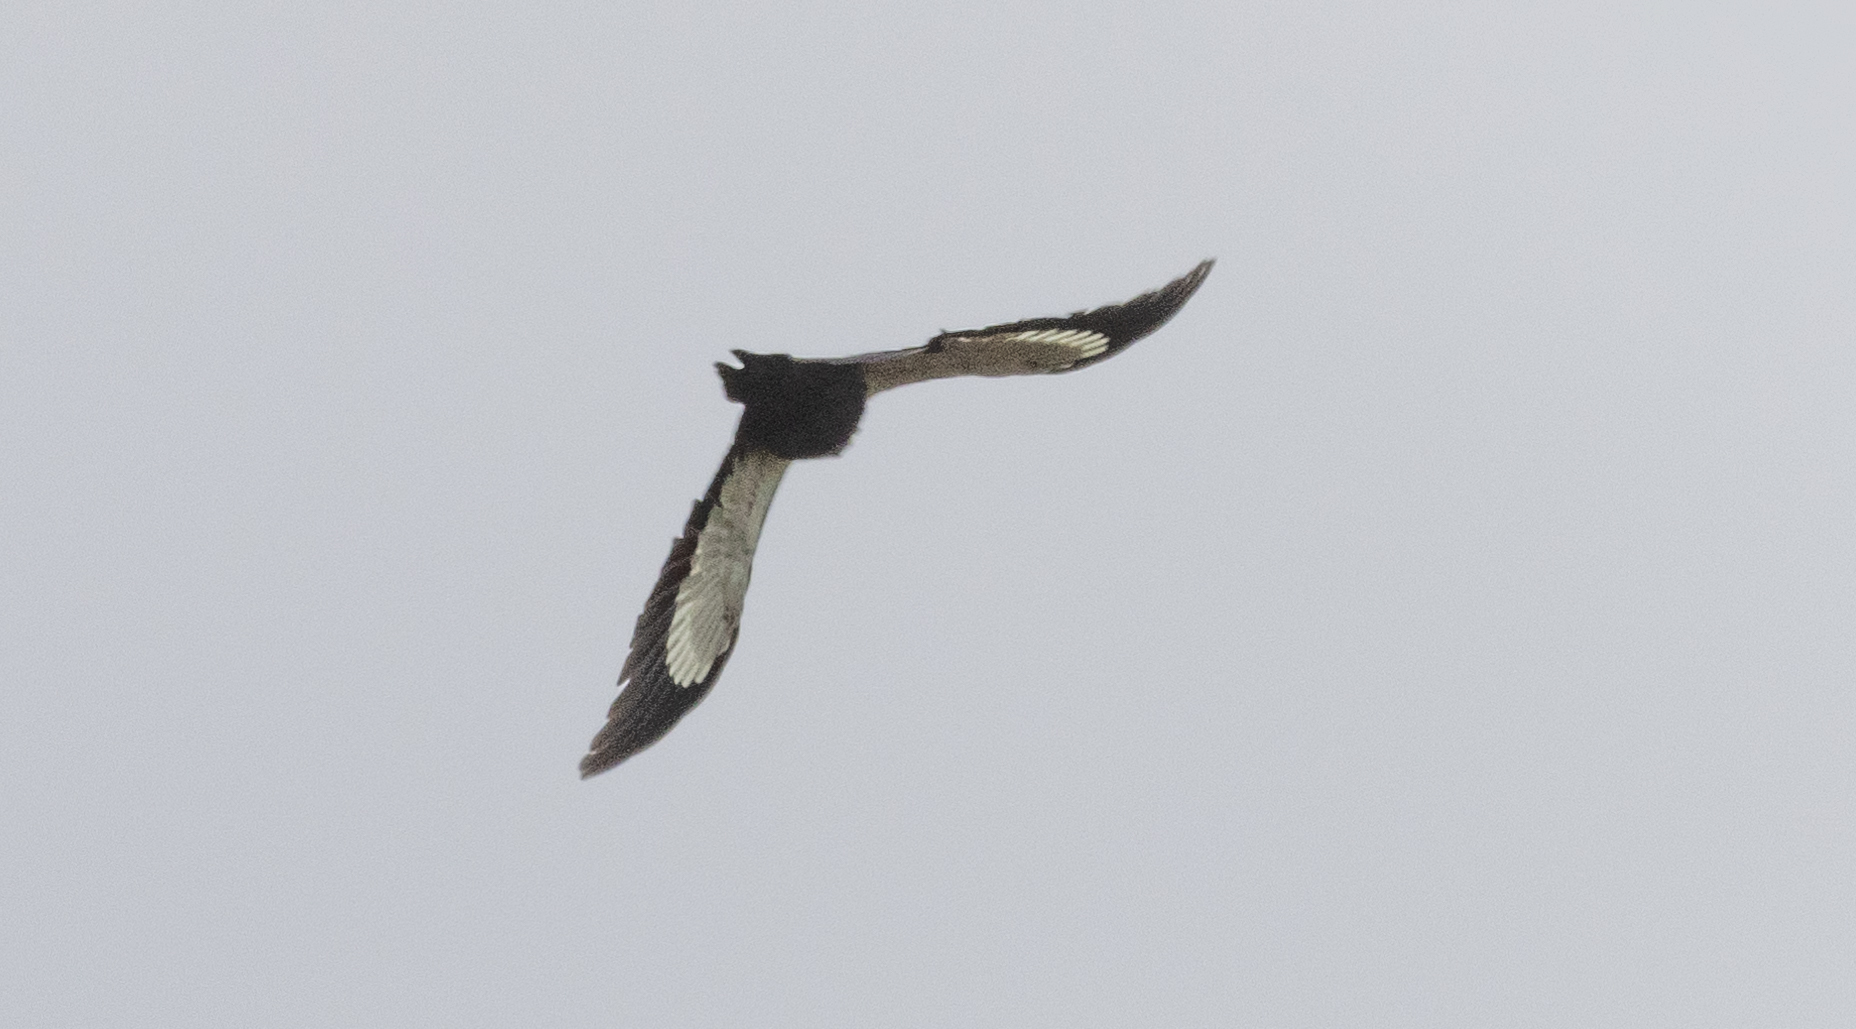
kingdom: Animalia
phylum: Chordata
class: Aves
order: Piciformes
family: Picidae
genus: Dryocopus
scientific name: Dryocopus pileatus
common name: Pileated woodpecker
